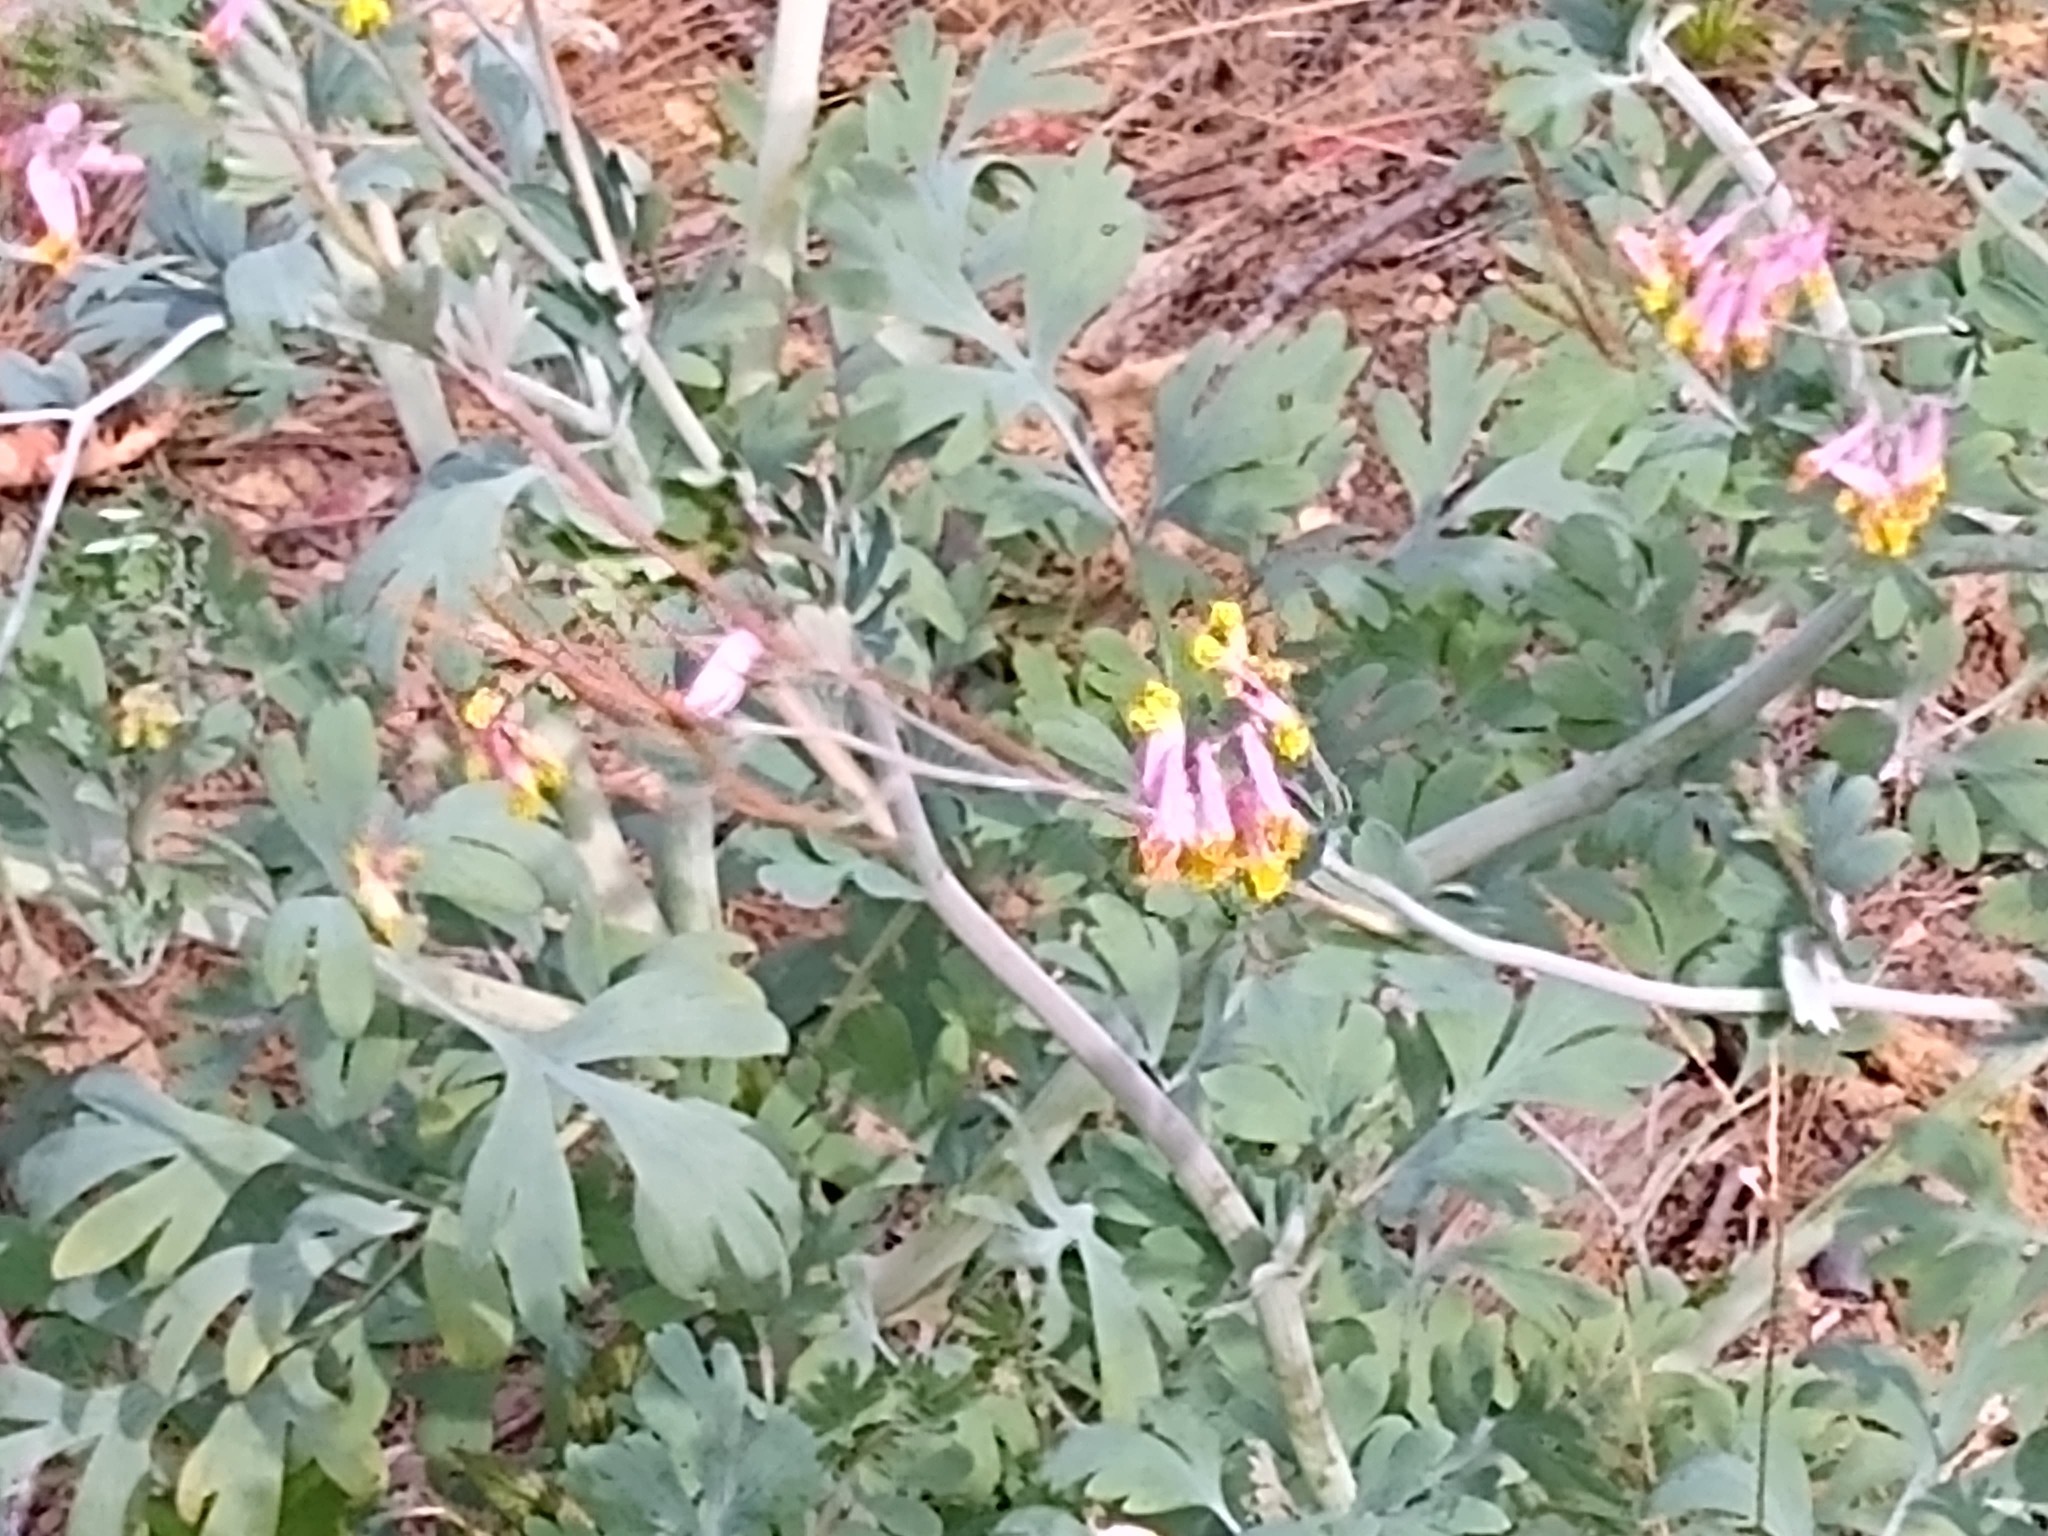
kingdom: Plantae
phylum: Tracheophyta
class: Magnoliopsida
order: Ranunculales
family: Papaveraceae
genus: Capnoides
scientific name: Capnoides sempervirens
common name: Rock harlequin
